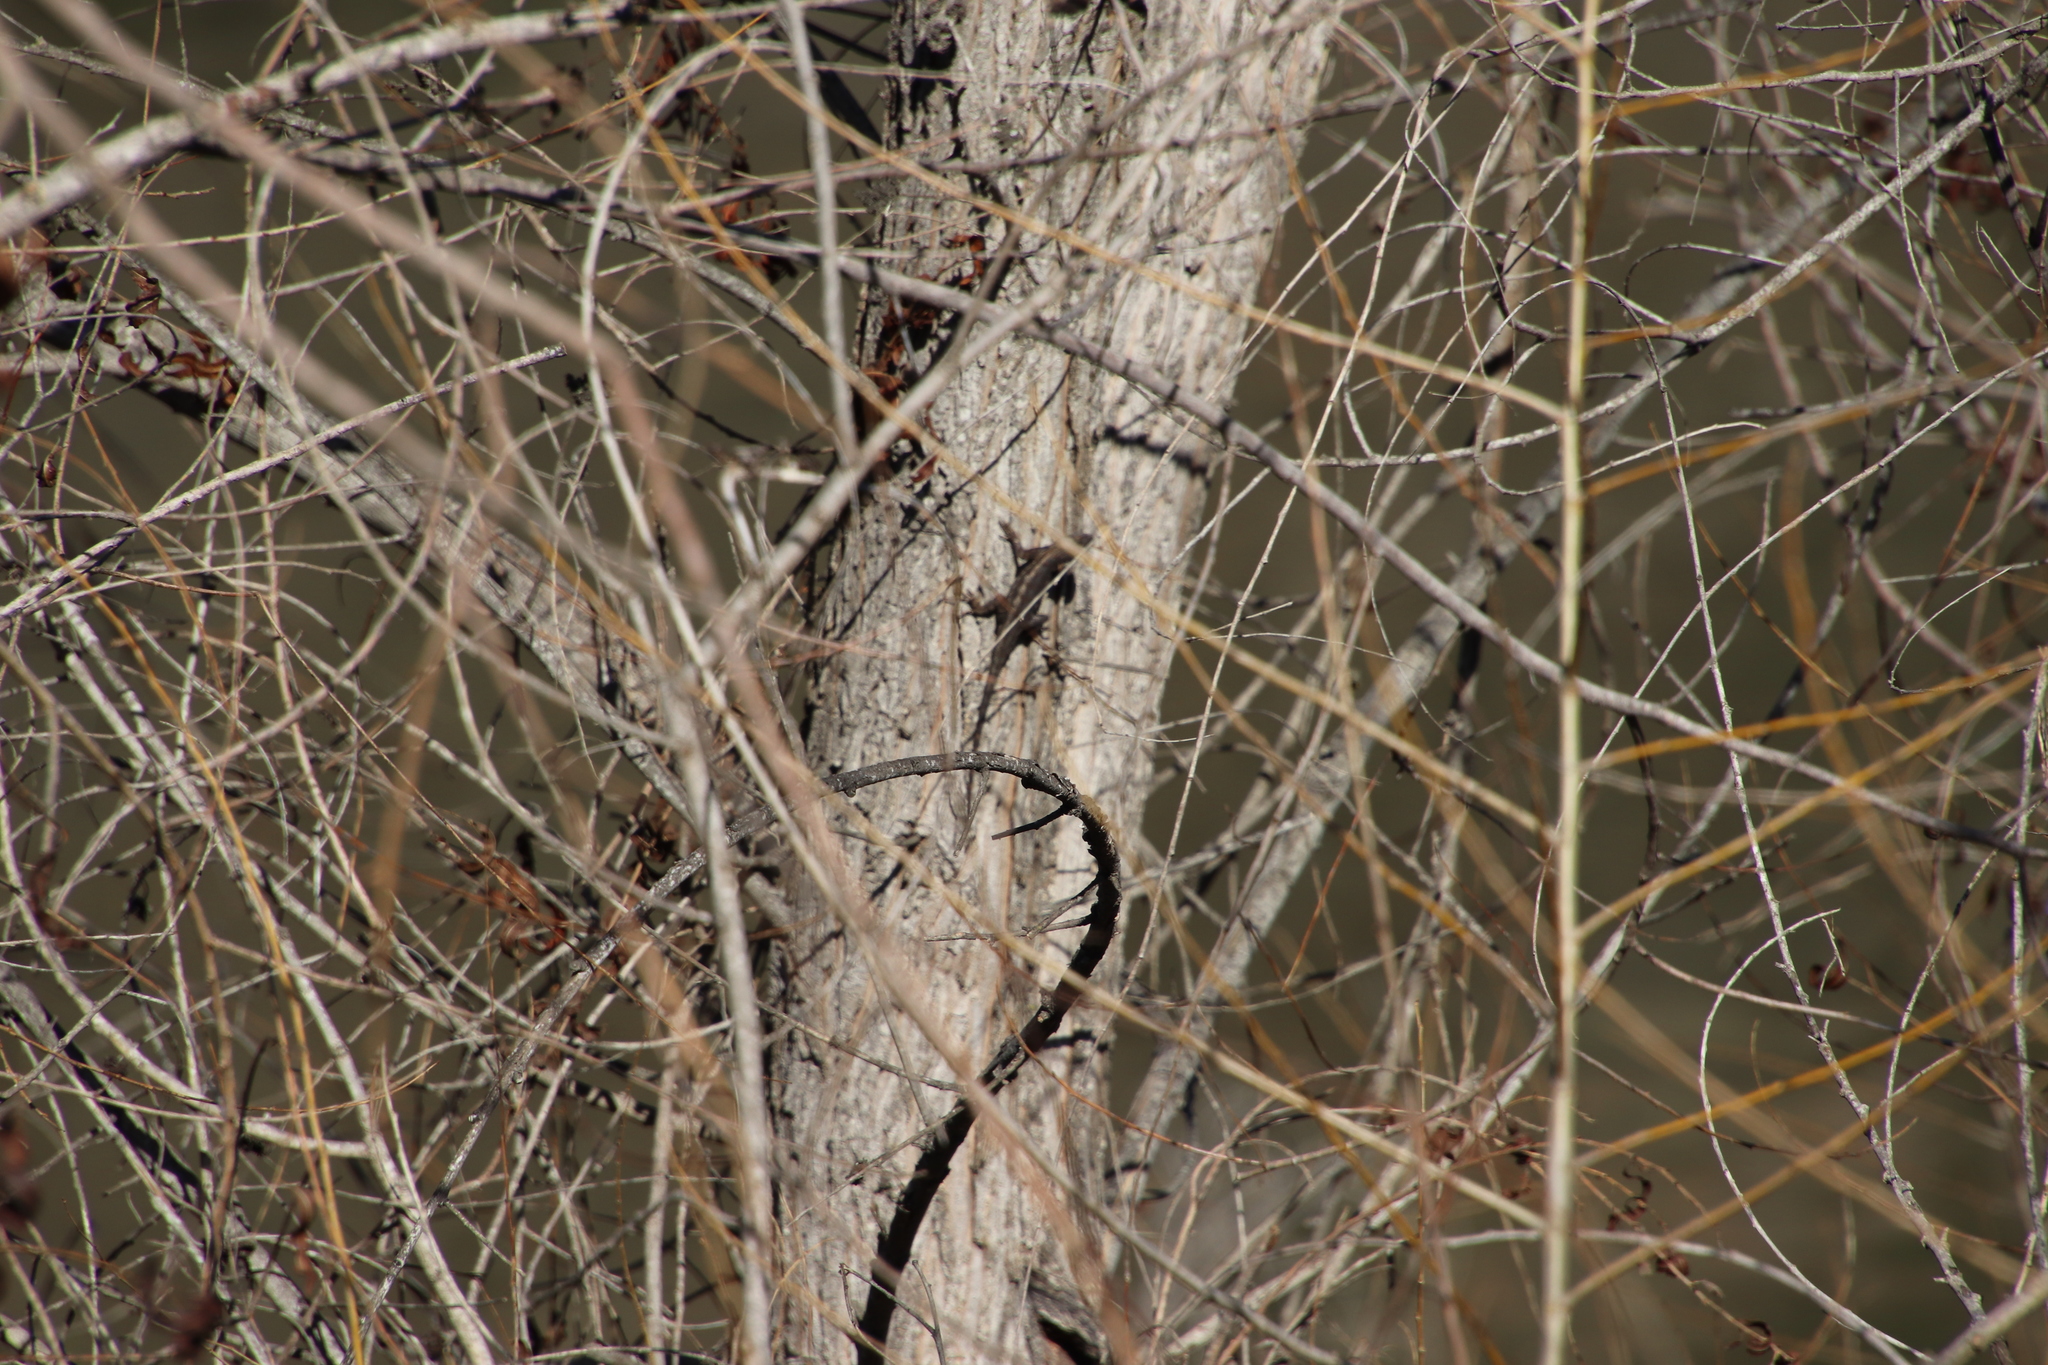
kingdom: Animalia
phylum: Chordata
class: Squamata
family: Phrynosomatidae
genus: Sceloporus
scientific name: Sceloporus occidentalis
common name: Western fence lizard
